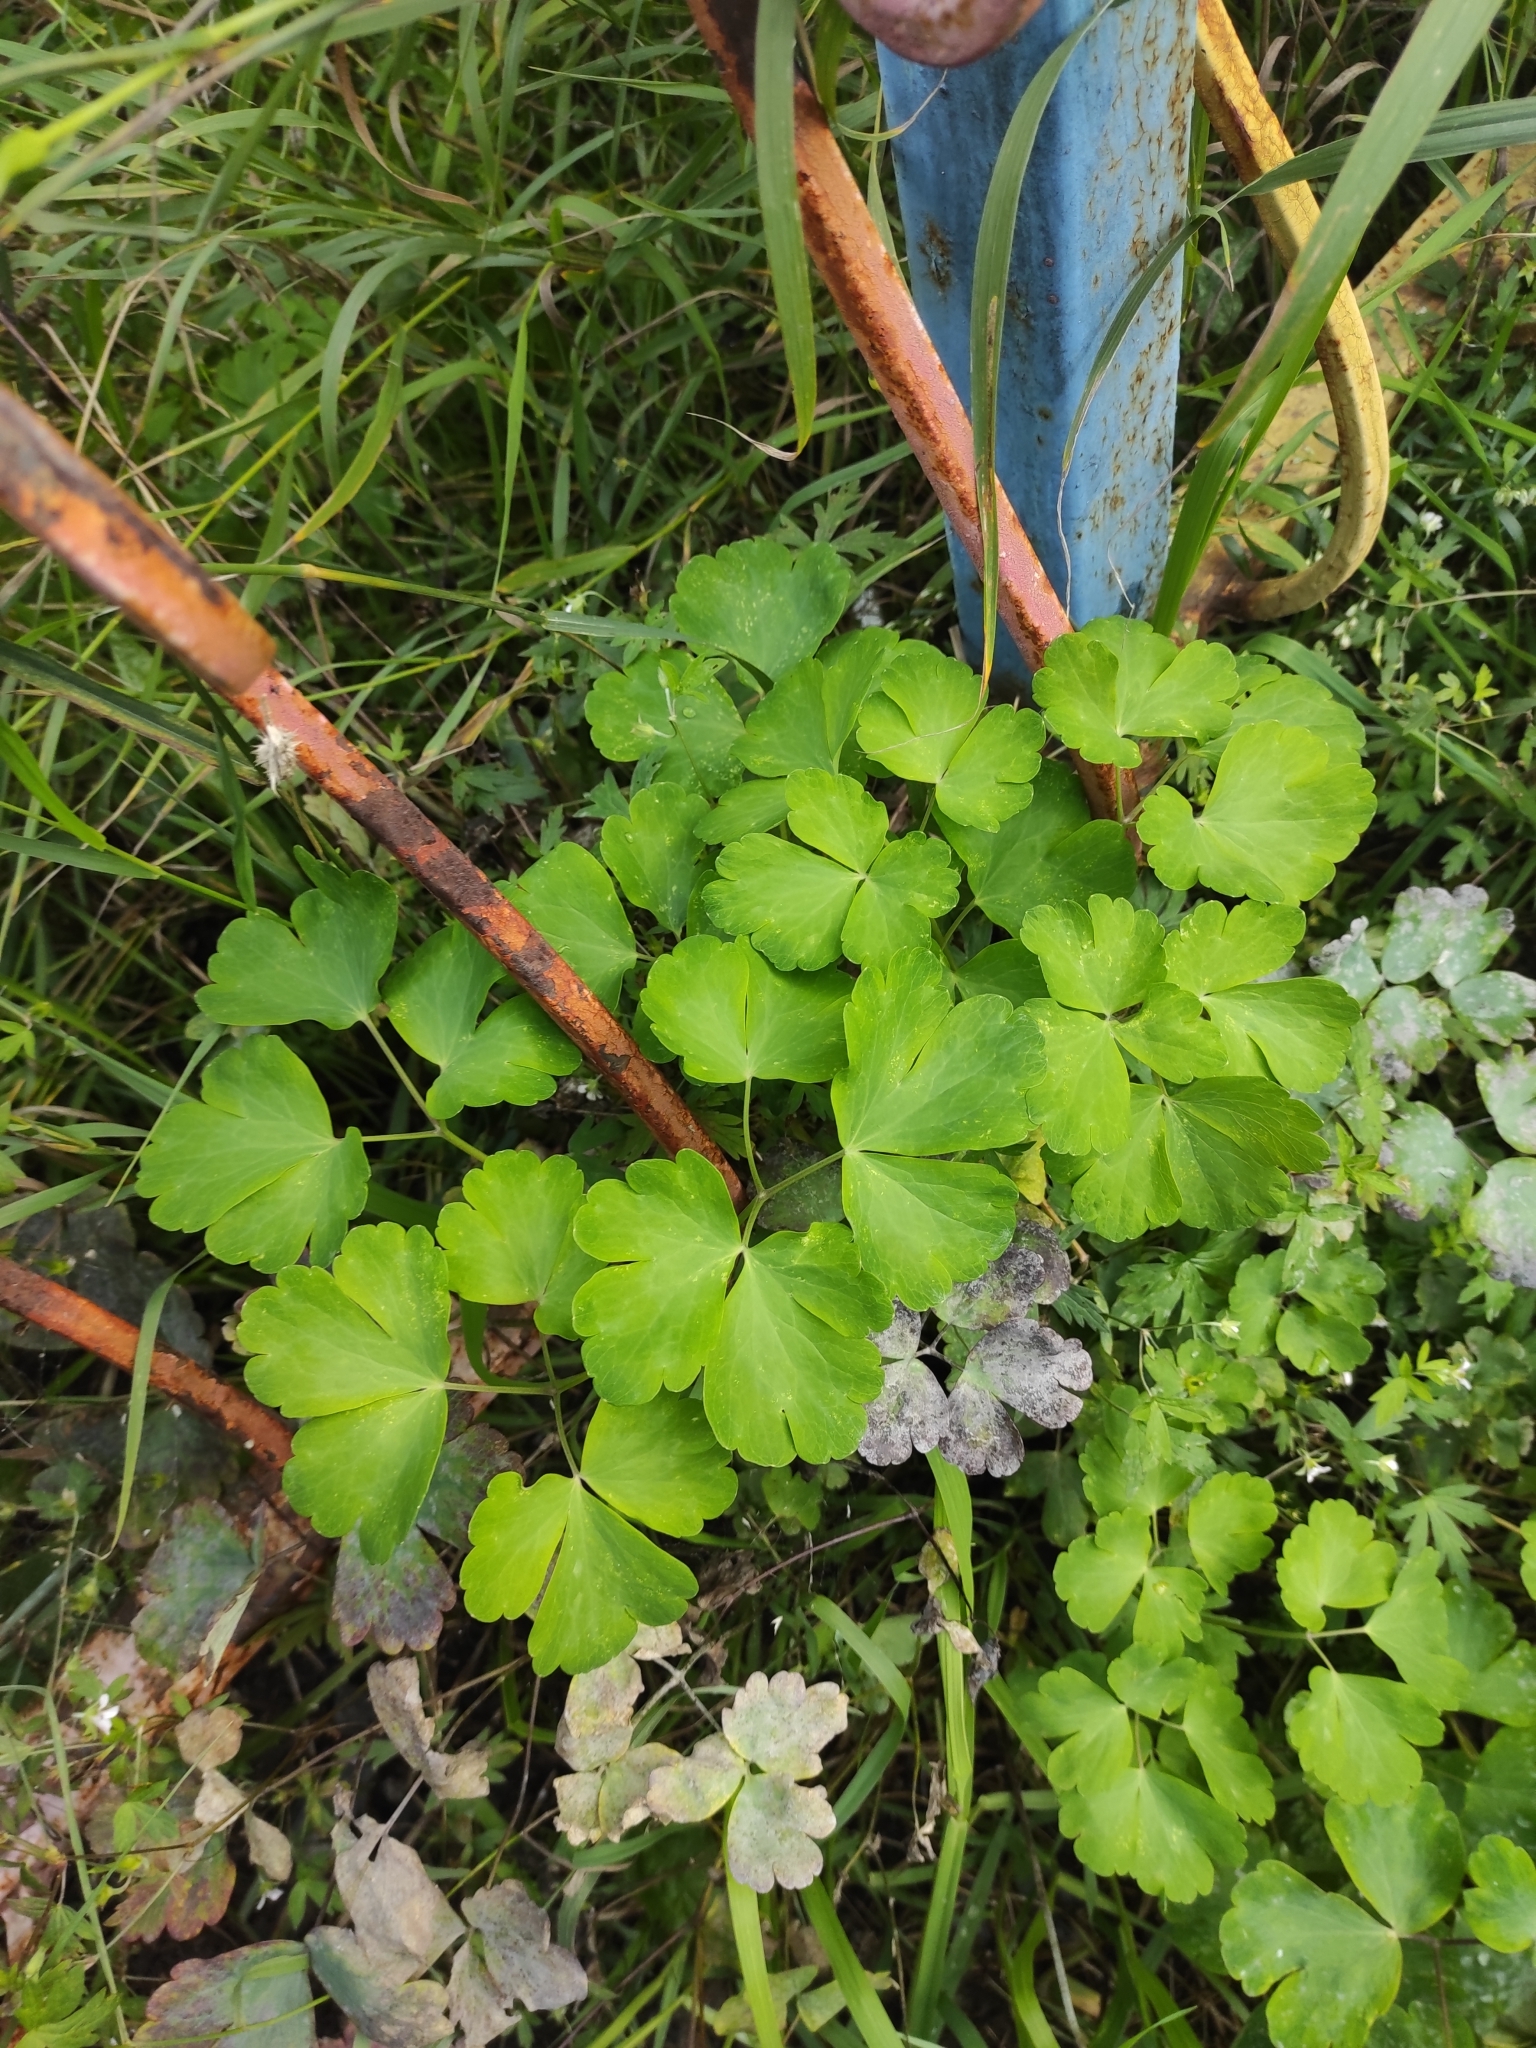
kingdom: Plantae
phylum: Tracheophyta
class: Magnoliopsida
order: Ranunculales
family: Ranunculaceae
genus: Aquilegia
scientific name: Aquilegia vulgaris
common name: Columbine
